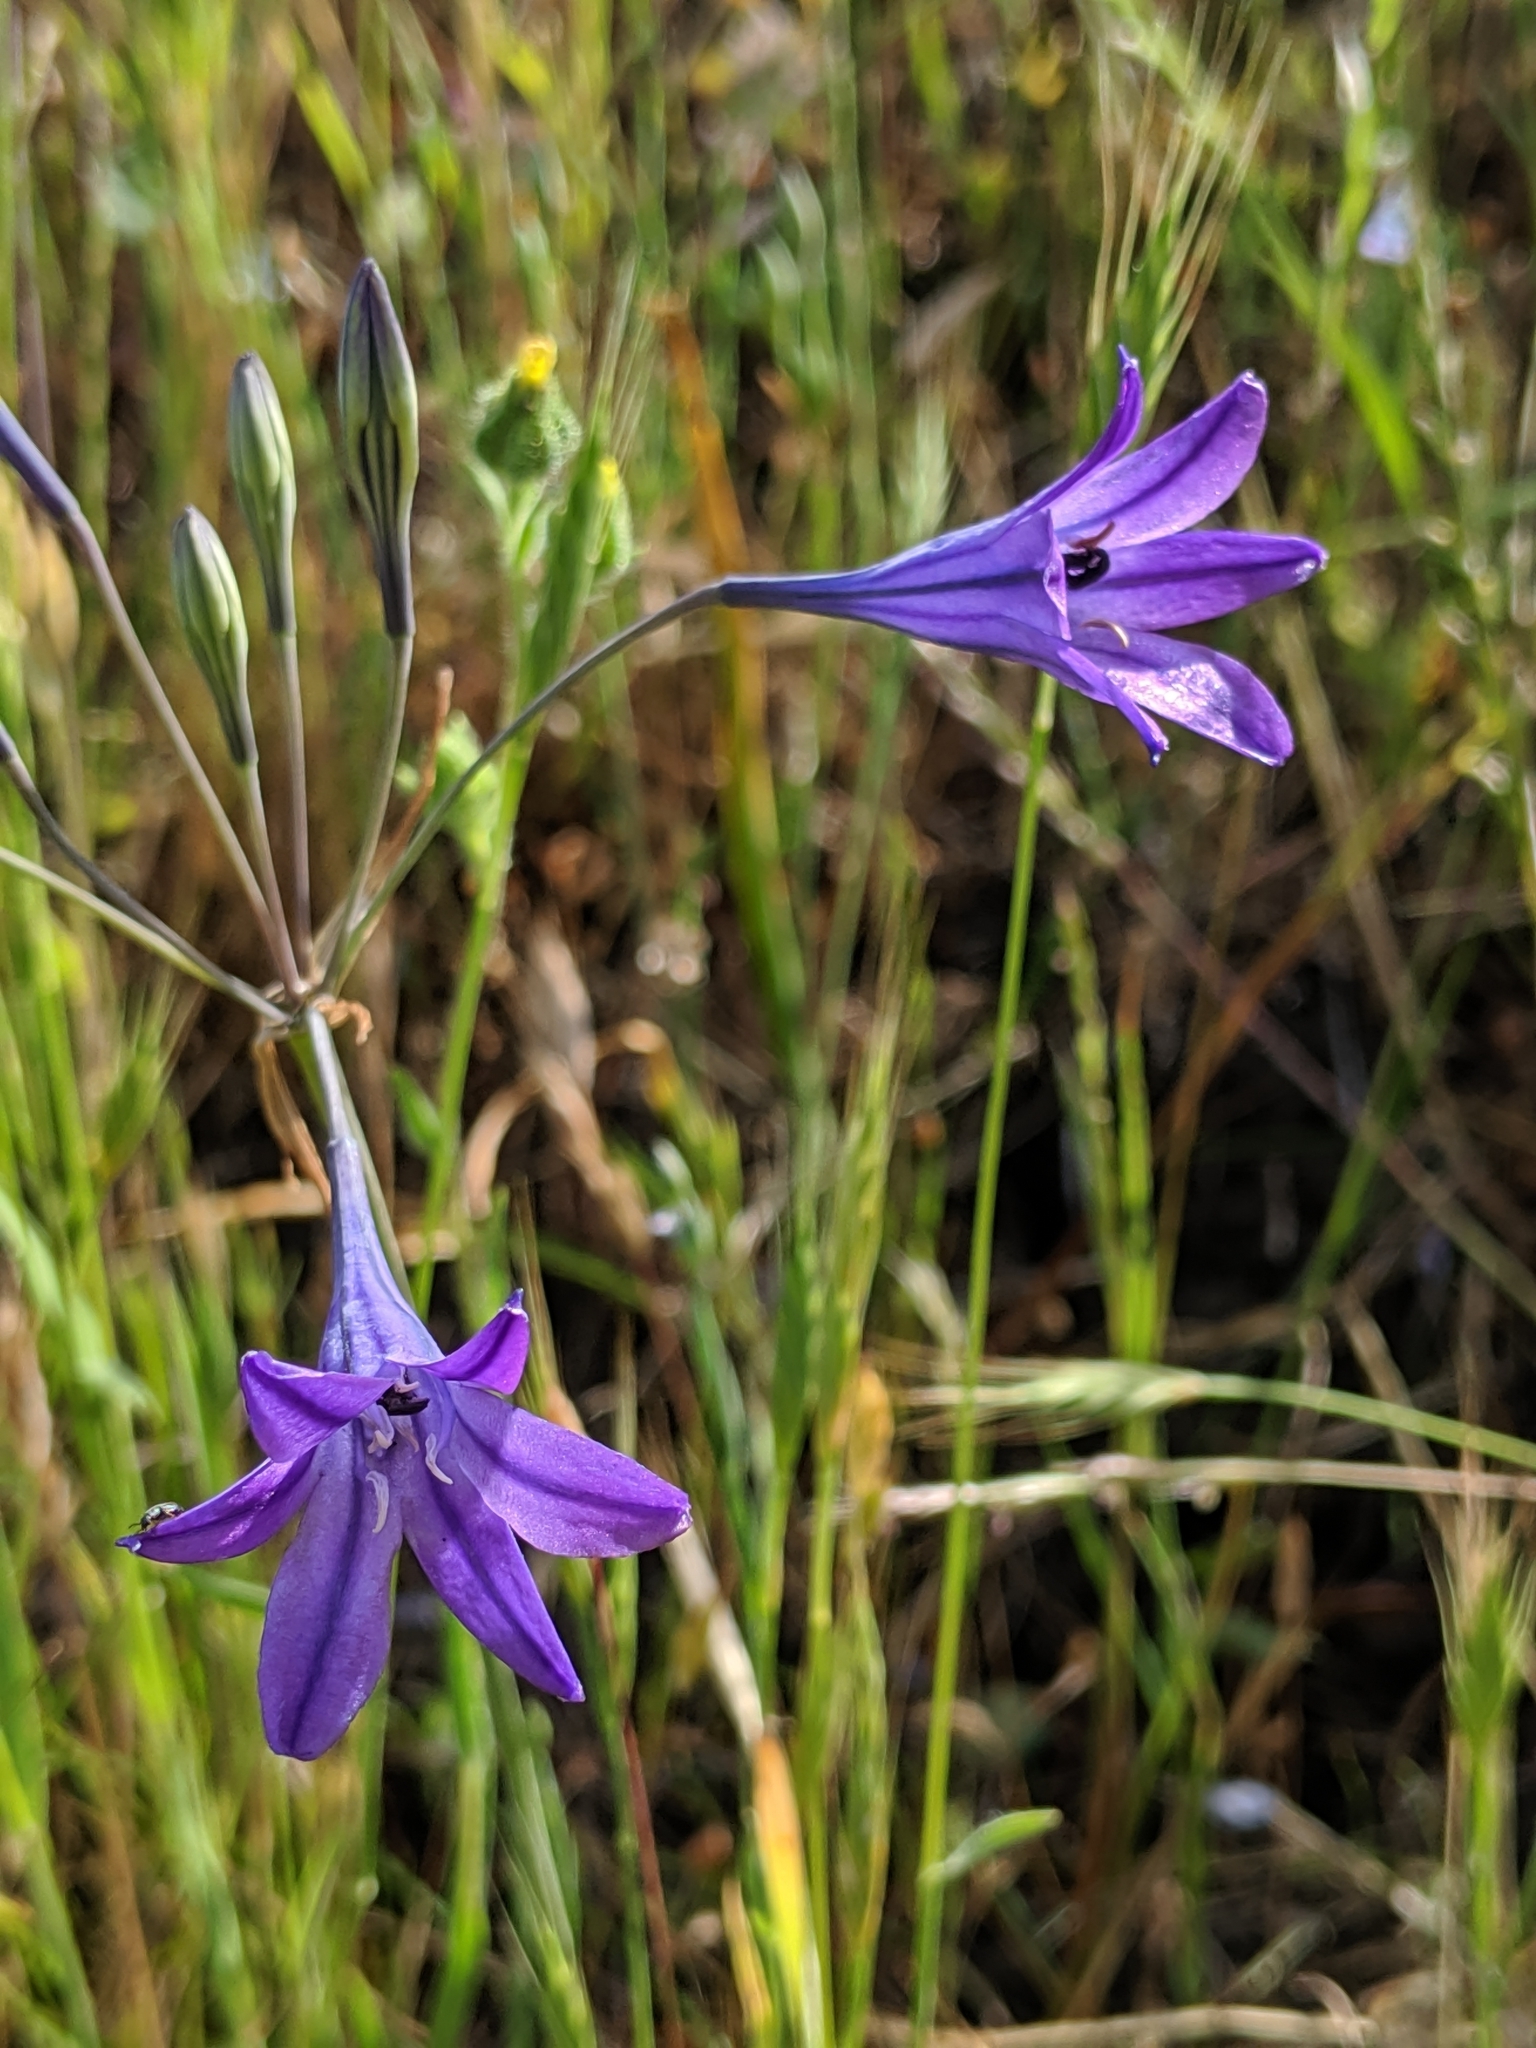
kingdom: Plantae
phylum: Tracheophyta
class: Liliopsida
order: Asparagales
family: Asparagaceae
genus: Triteleia
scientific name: Triteleia laxa
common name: Triplet-lily
